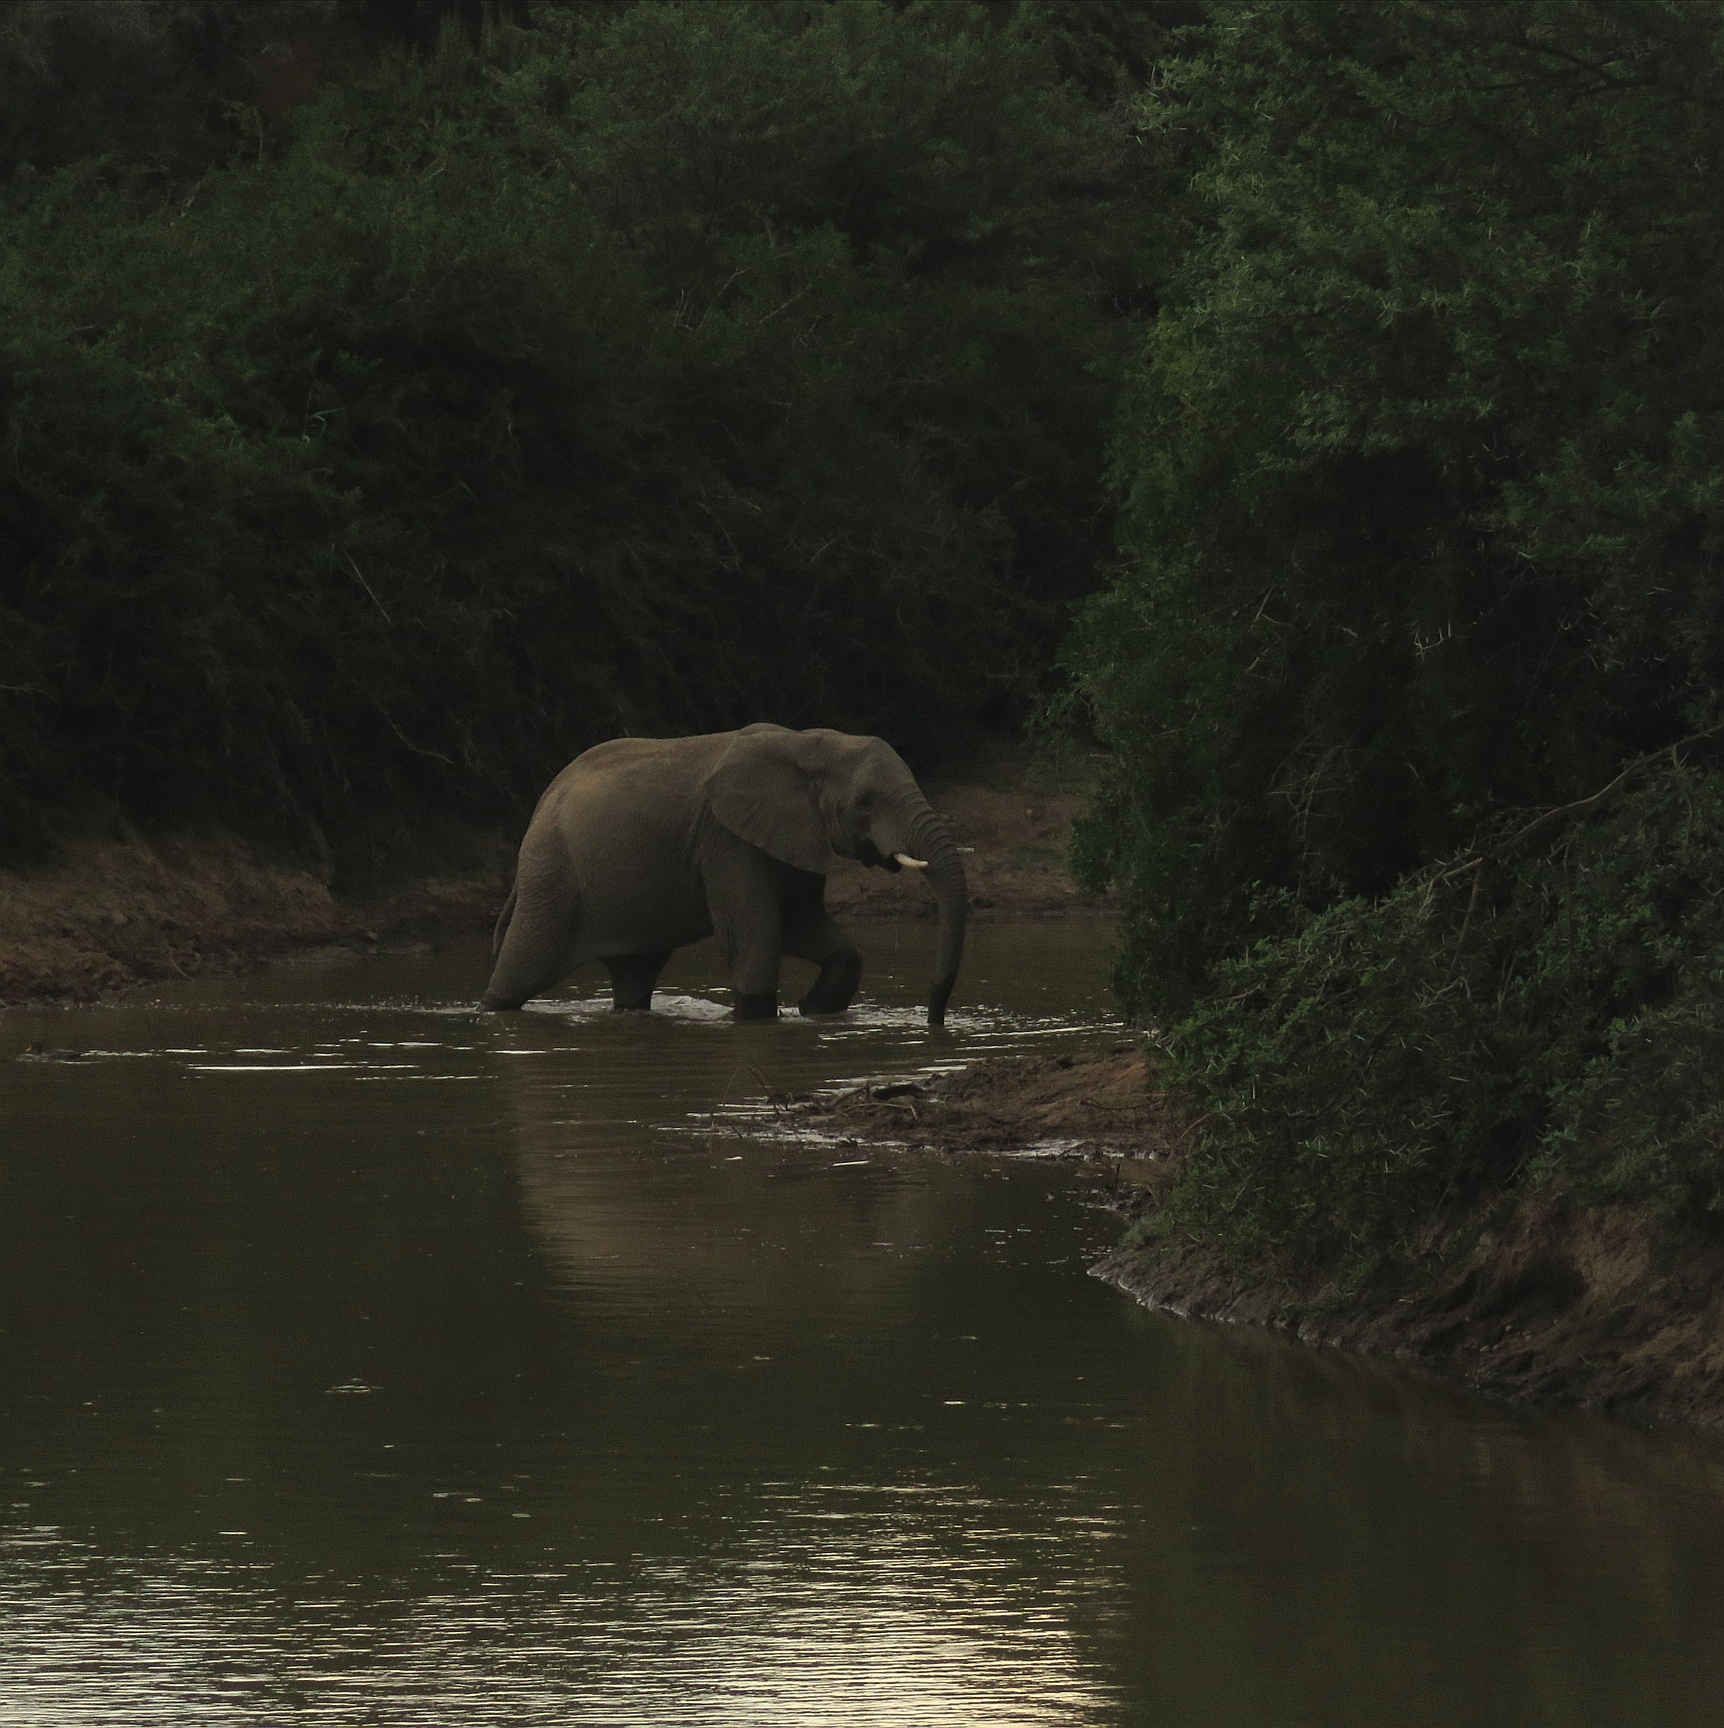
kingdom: Animalia
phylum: Chordata
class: Mammalia
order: Proboscidea
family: Elephantidae
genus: Loxodonta
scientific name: Loxodonta africana
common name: African elephant
